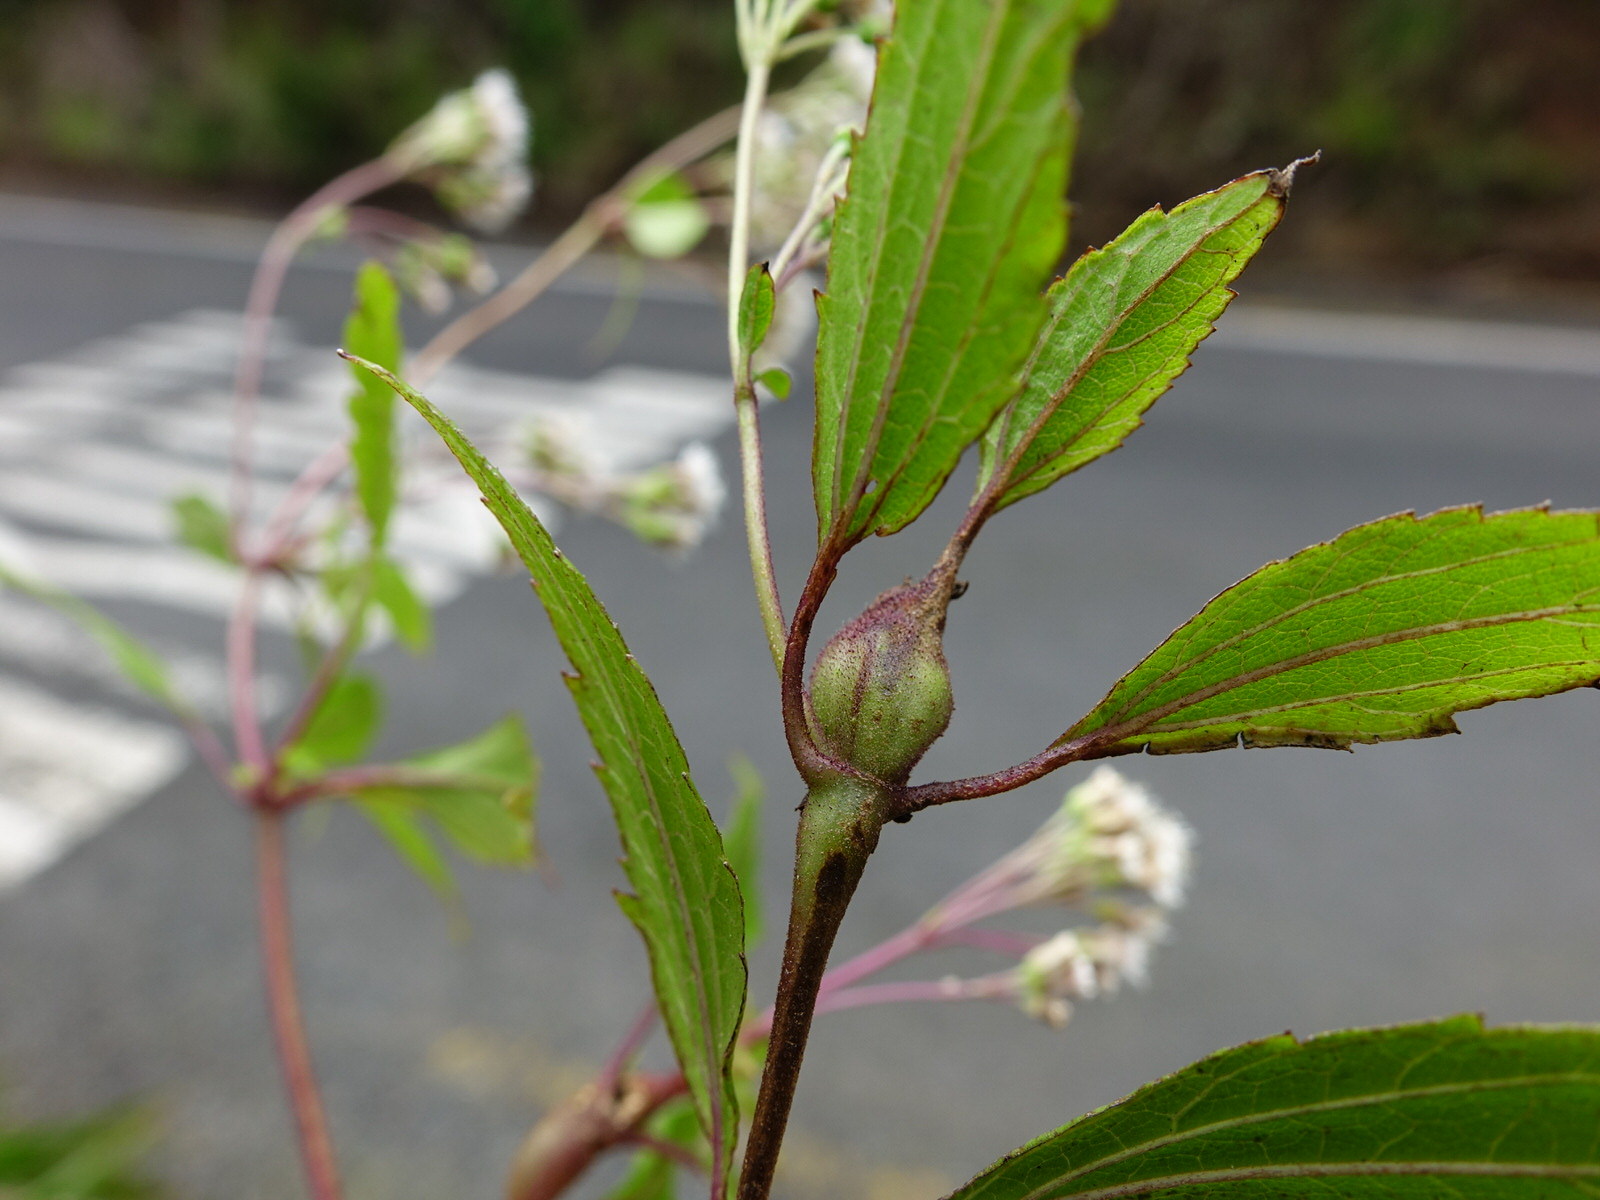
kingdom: Animalia
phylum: Arthropoda
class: Insecta
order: Diptera
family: Tephritidae
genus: Procecidochares
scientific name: Procecidochares alani
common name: Fruit fly
